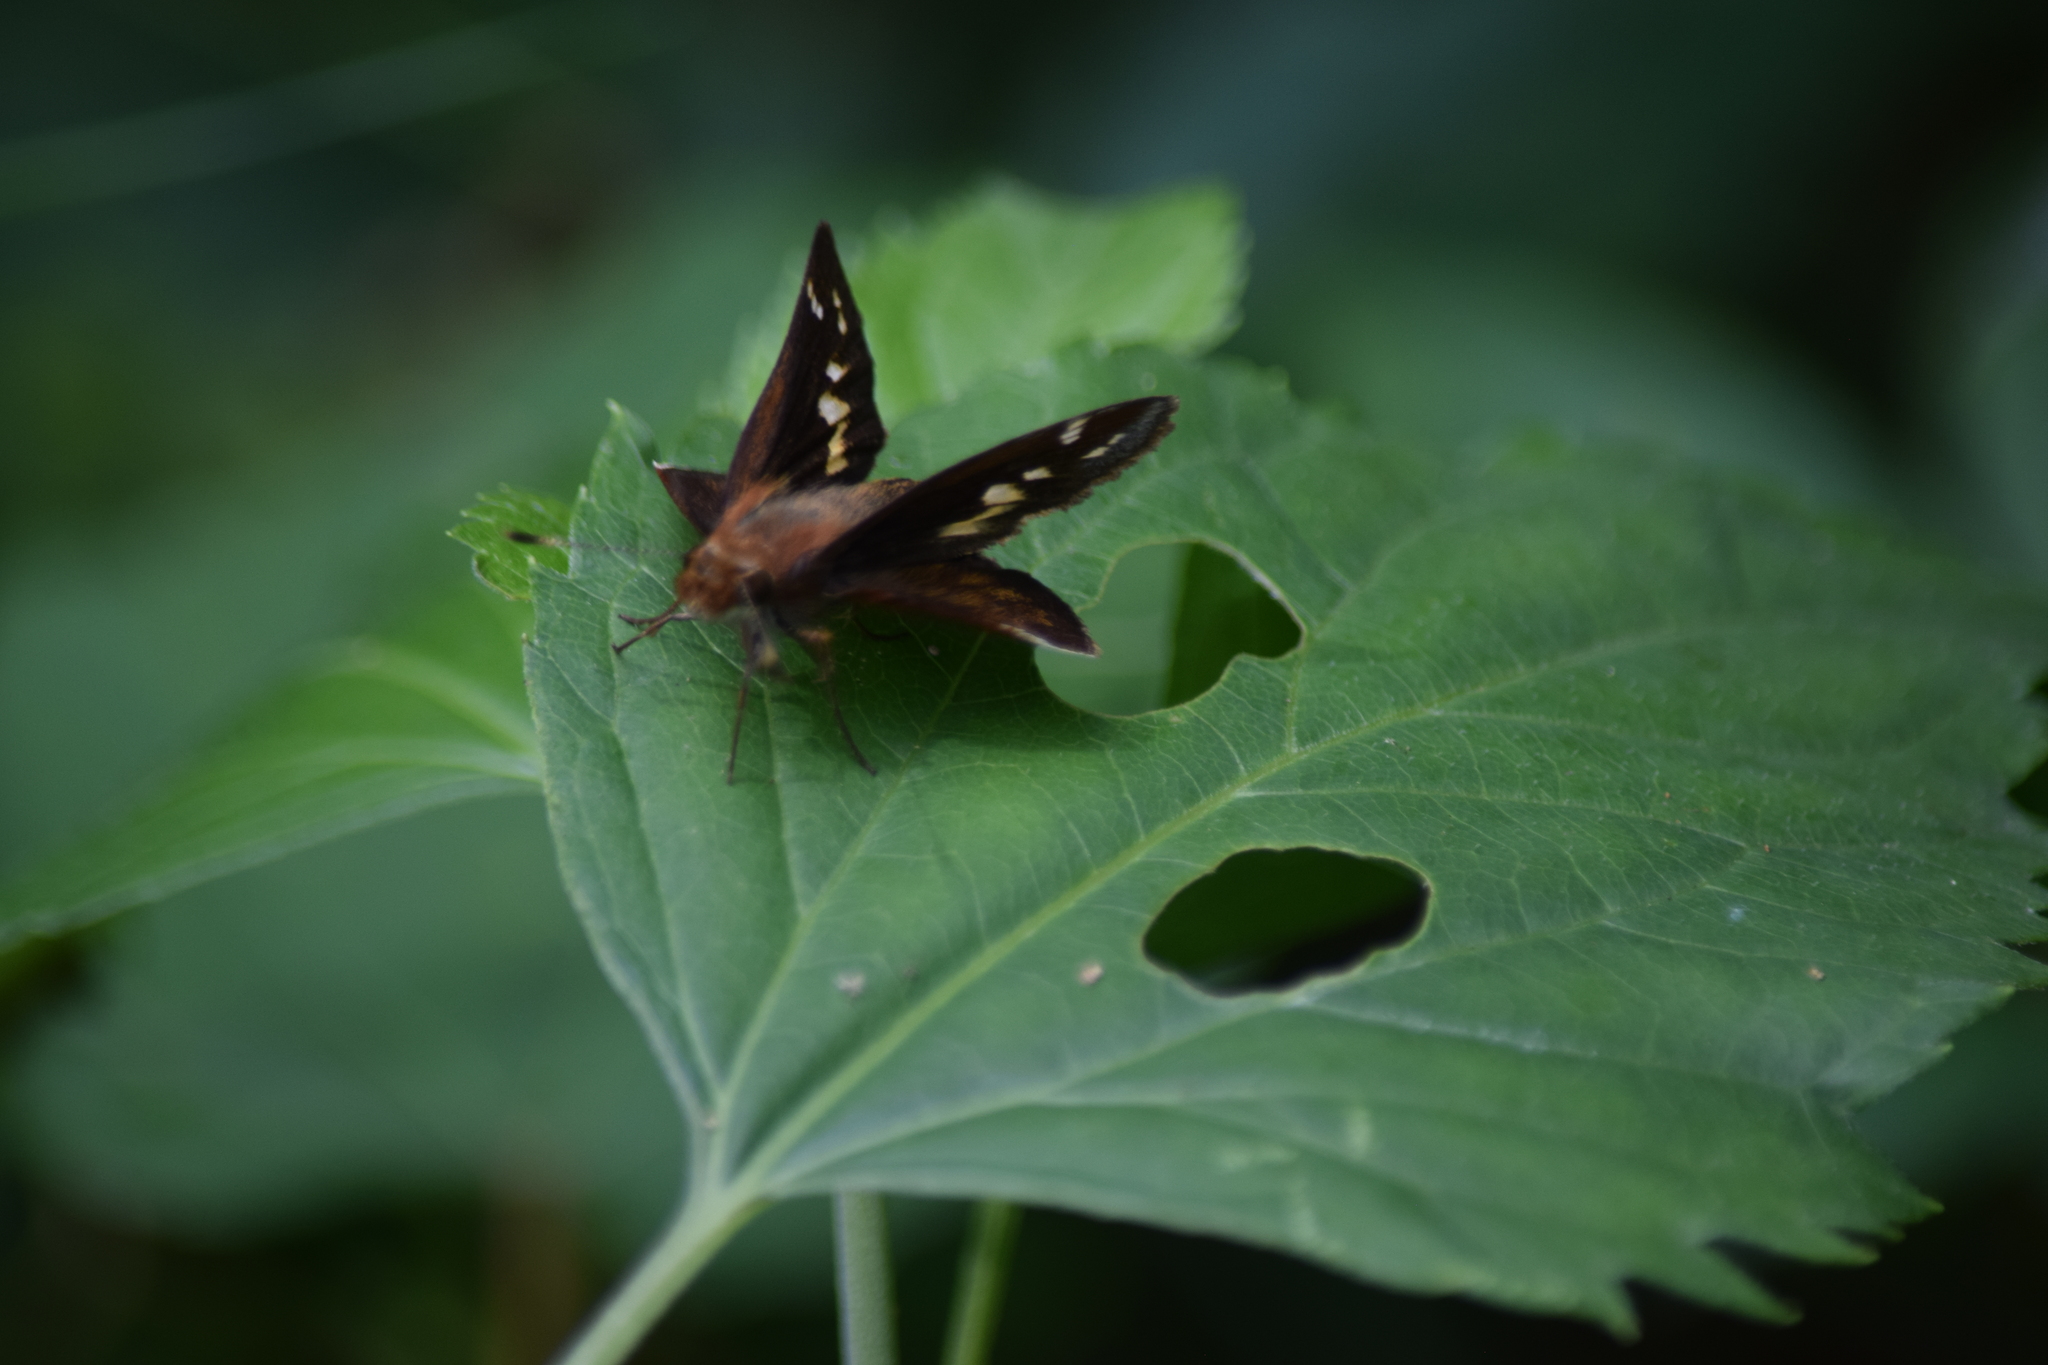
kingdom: Animalia
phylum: Arthropoda
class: Insecta
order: Lepidoptera
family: Hesperiidae
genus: Lon
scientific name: Lon zabulon
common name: Zabulon skipper
